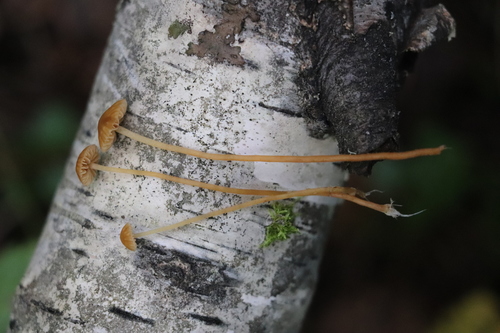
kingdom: Fungi
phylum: Basidiomycota
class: Agaricomycetes
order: Agaricales
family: Hymenogastraceae
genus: Galerina
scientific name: Galerina
